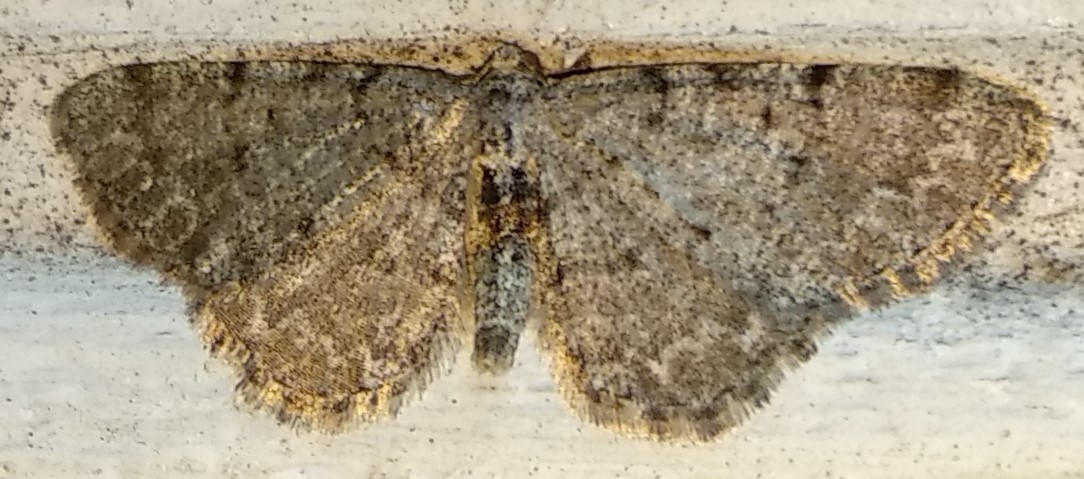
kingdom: Animalia
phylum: Arthropoda
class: Insecta
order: Lepidoptera
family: Geometridae
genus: Aethalura
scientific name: Aethalura intertexta
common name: Four-barred gray
